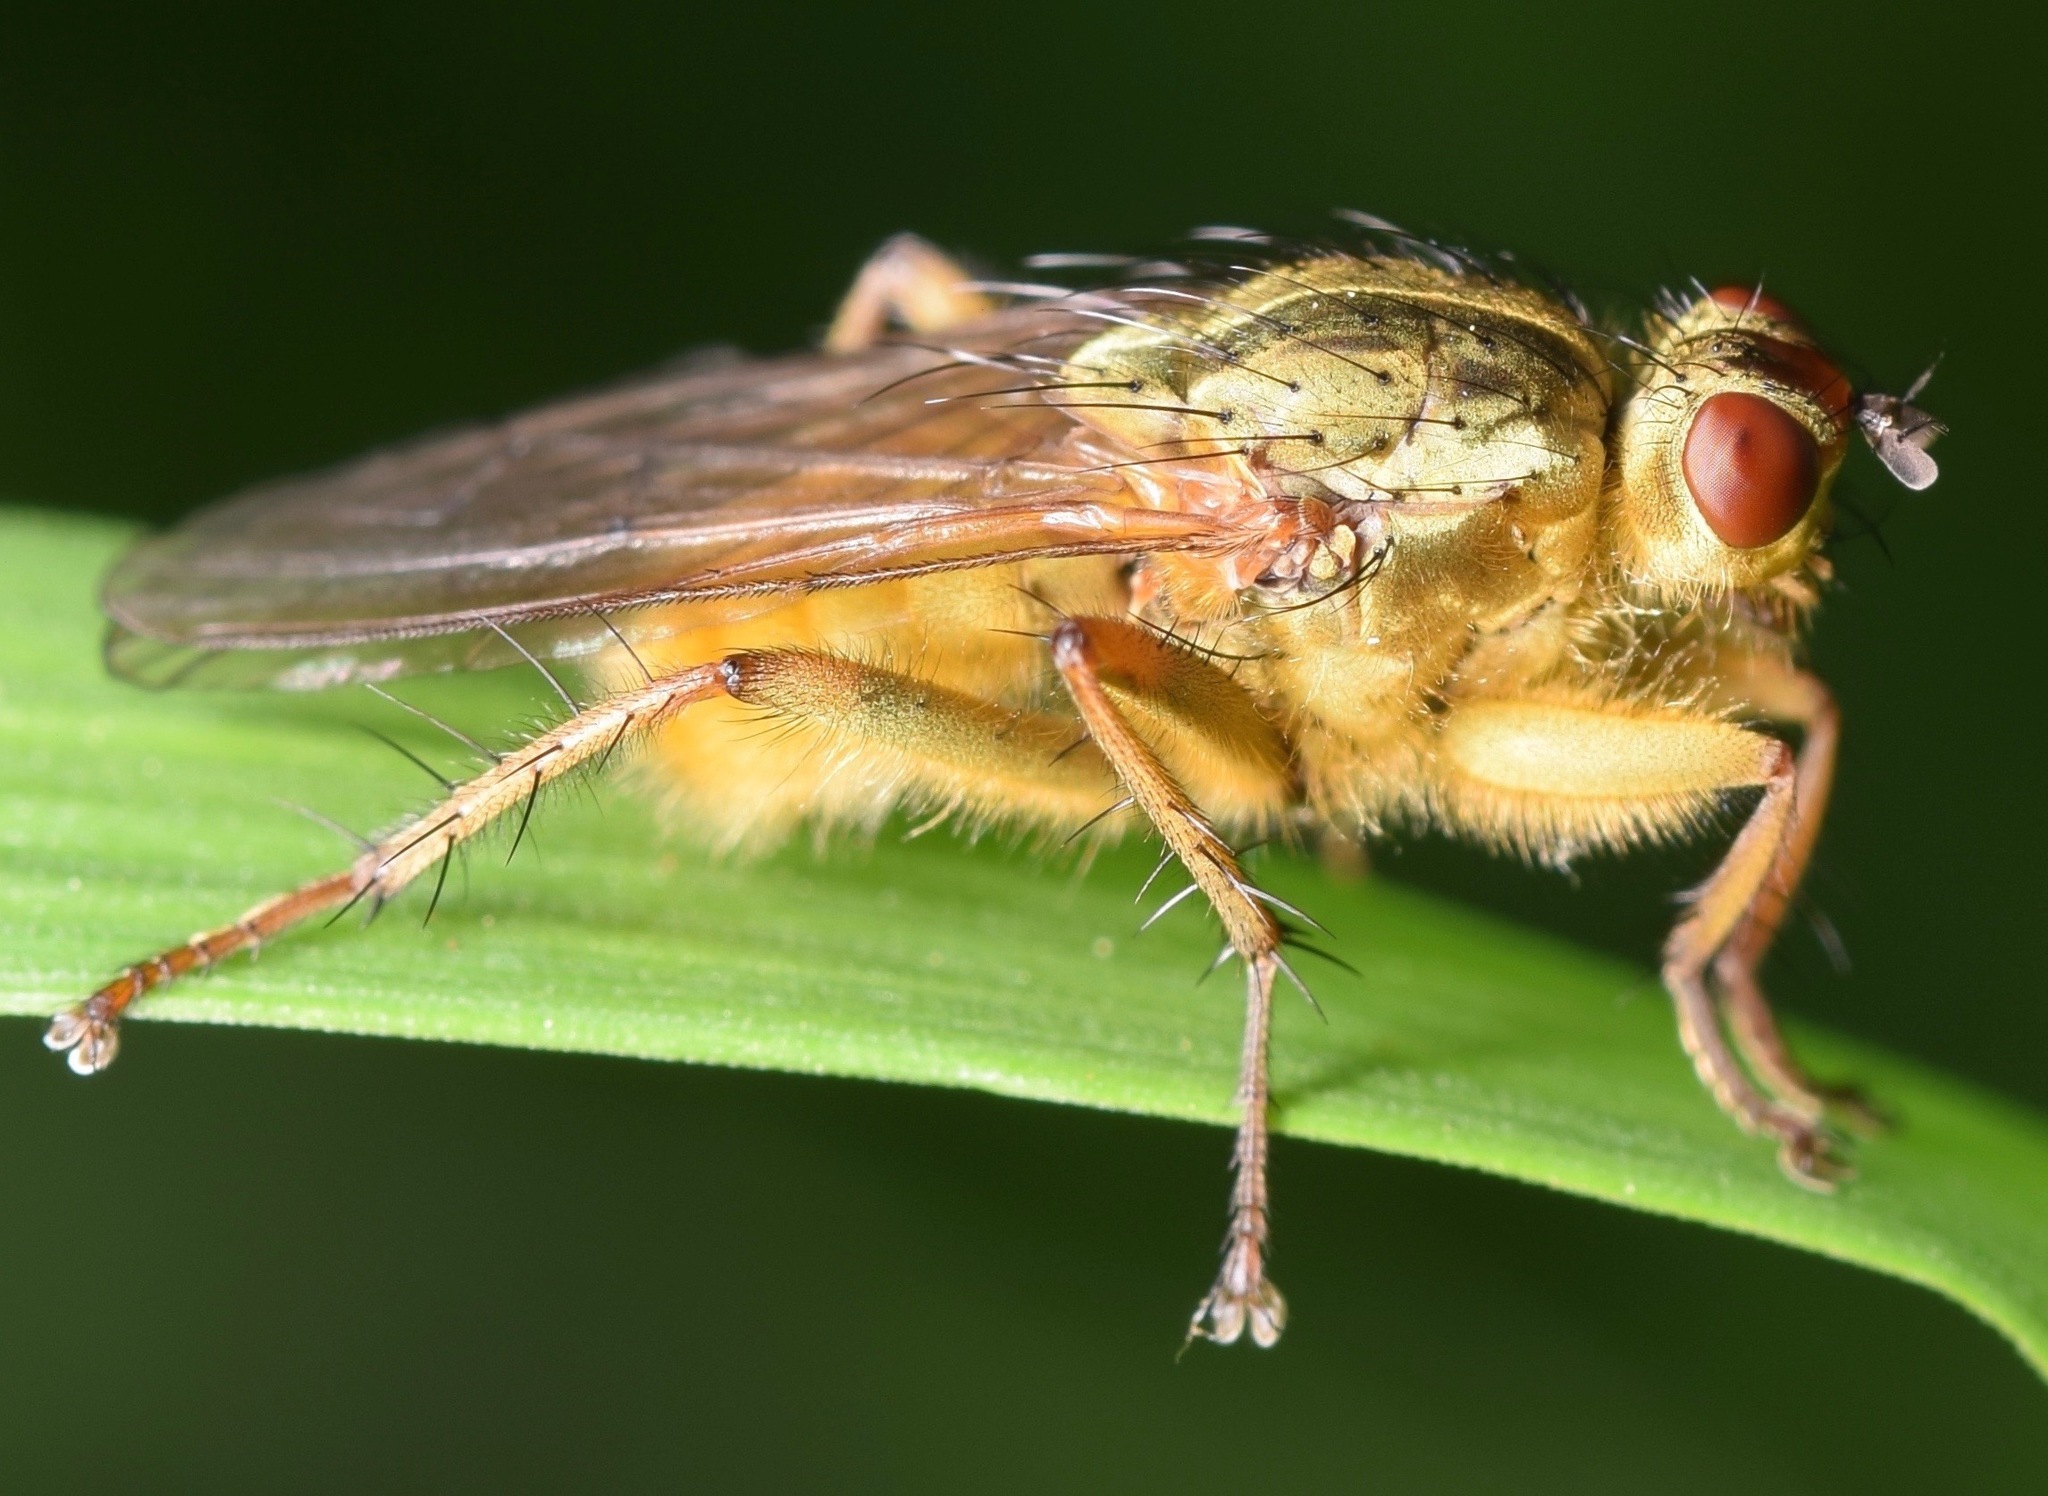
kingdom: Animalia
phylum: Arthropoda
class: Insecta
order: Diptera
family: Scathophagidae
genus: Scathophaga
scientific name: Scathophaga stercoraria
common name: Yellow dung fly
